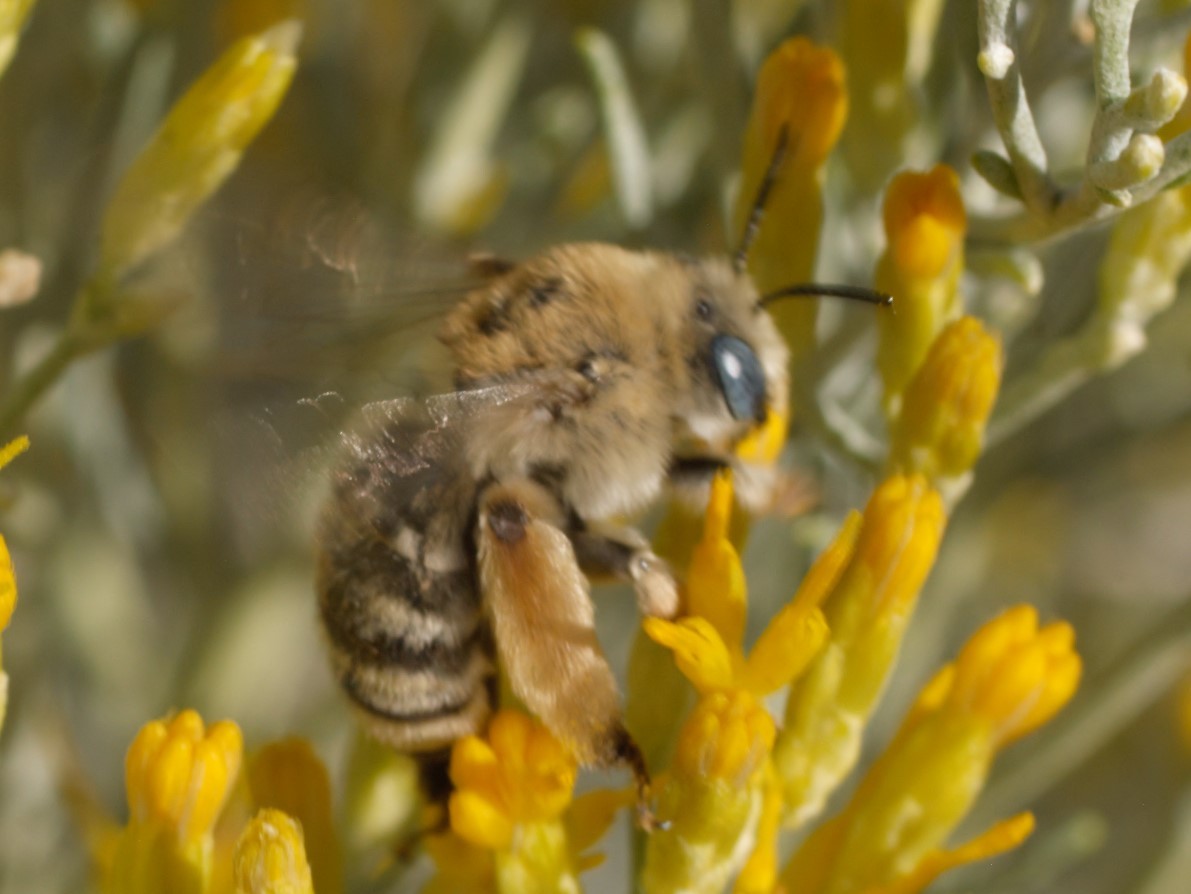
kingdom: Animalia
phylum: Arthropoda
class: Insecta
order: Hymenoptera
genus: Eumelissodes
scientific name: Eumelissodes
